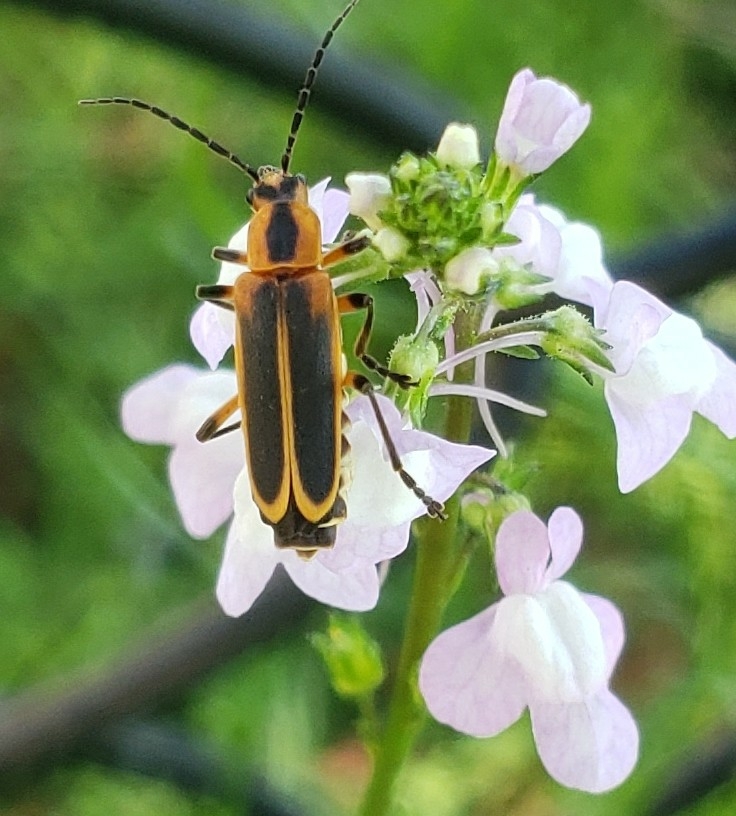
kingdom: Animalia
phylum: Arthropoda
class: Insecta
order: Coleoptera
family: Cantharidae
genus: Chauliognathus
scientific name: Chauliognathus marginatus
